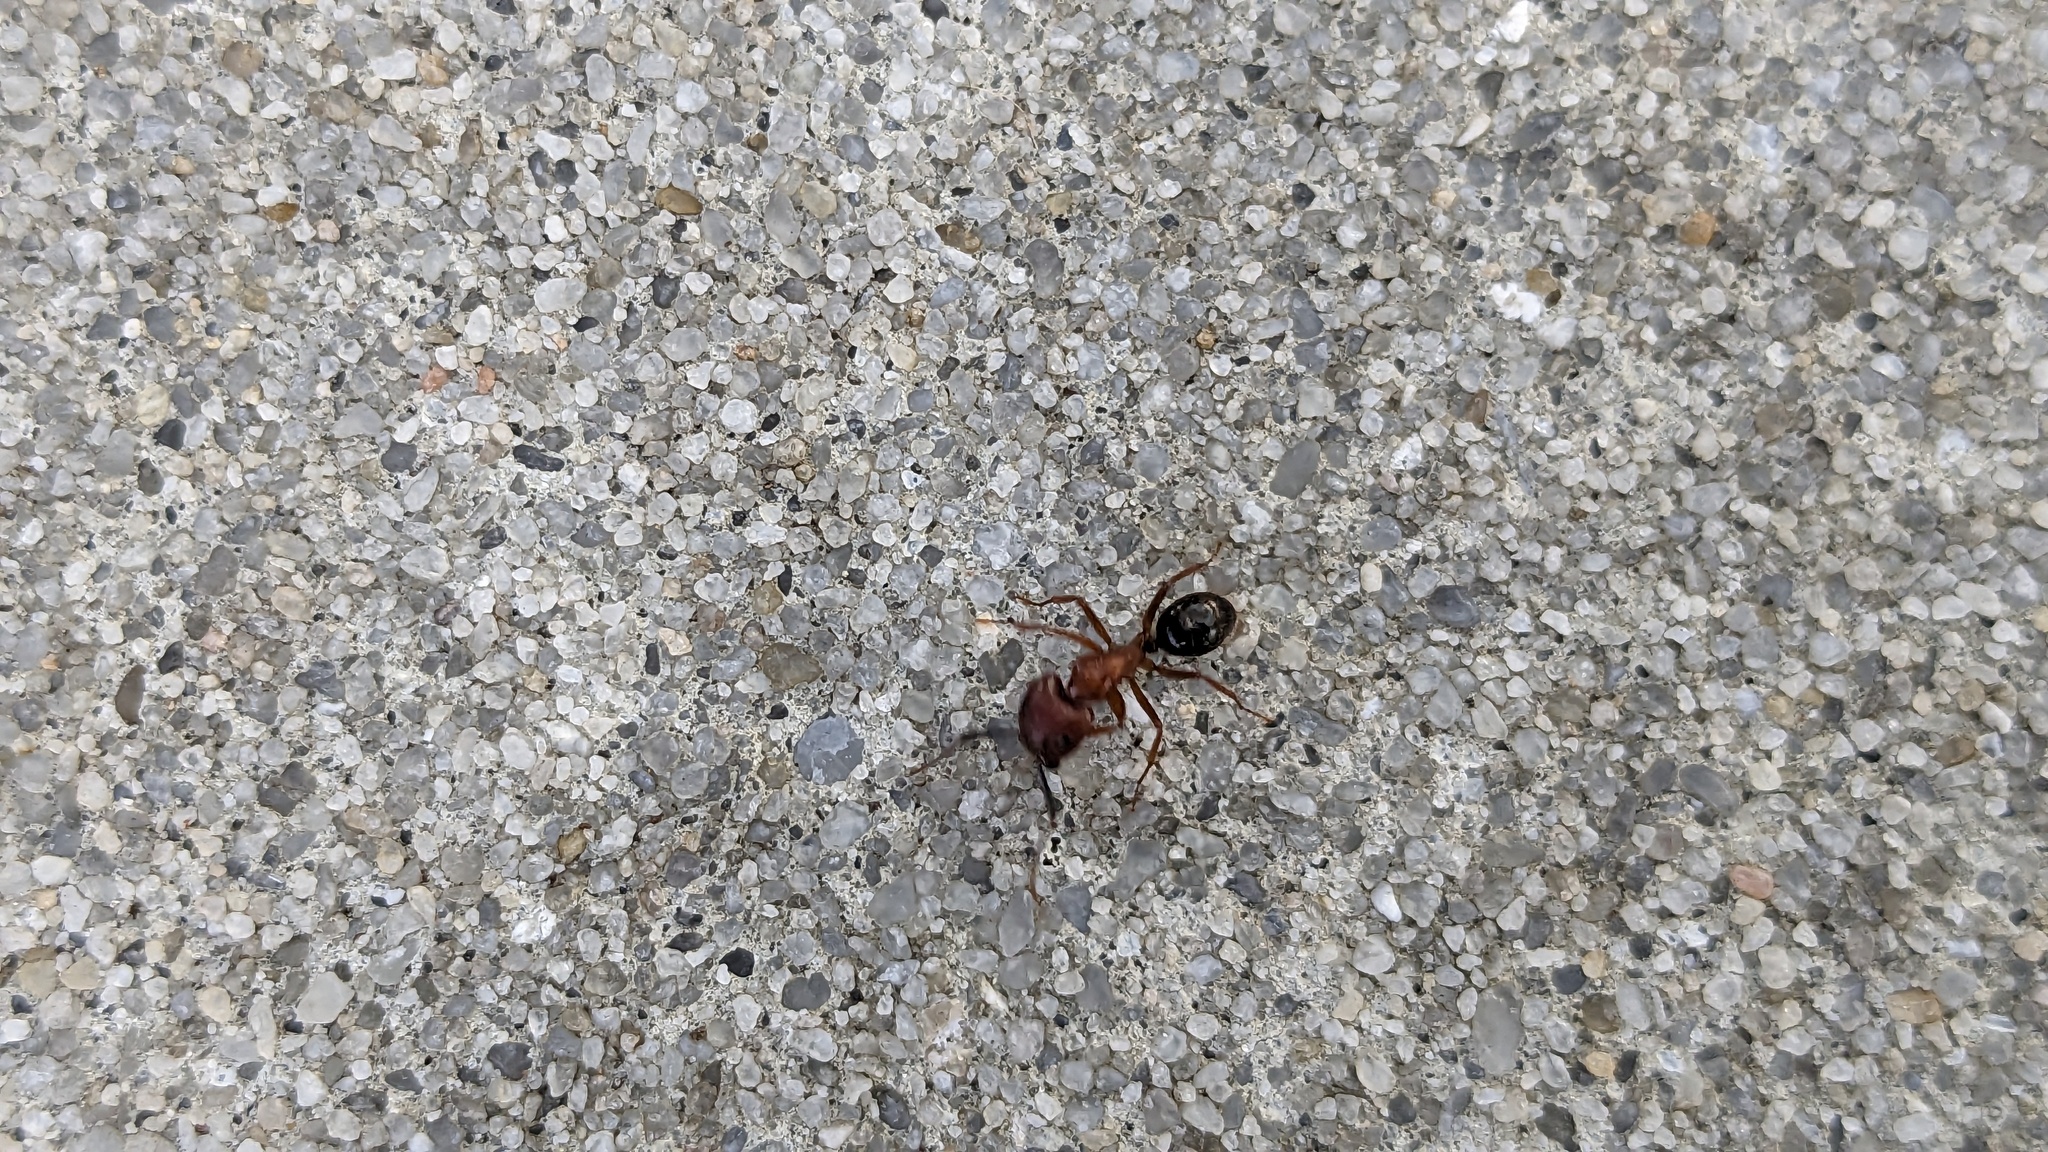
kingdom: Animalia
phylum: Arthropoda
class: Insecta
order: Hymenoptera
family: Formicidae
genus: Camponotus
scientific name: Camponotus floridanus
